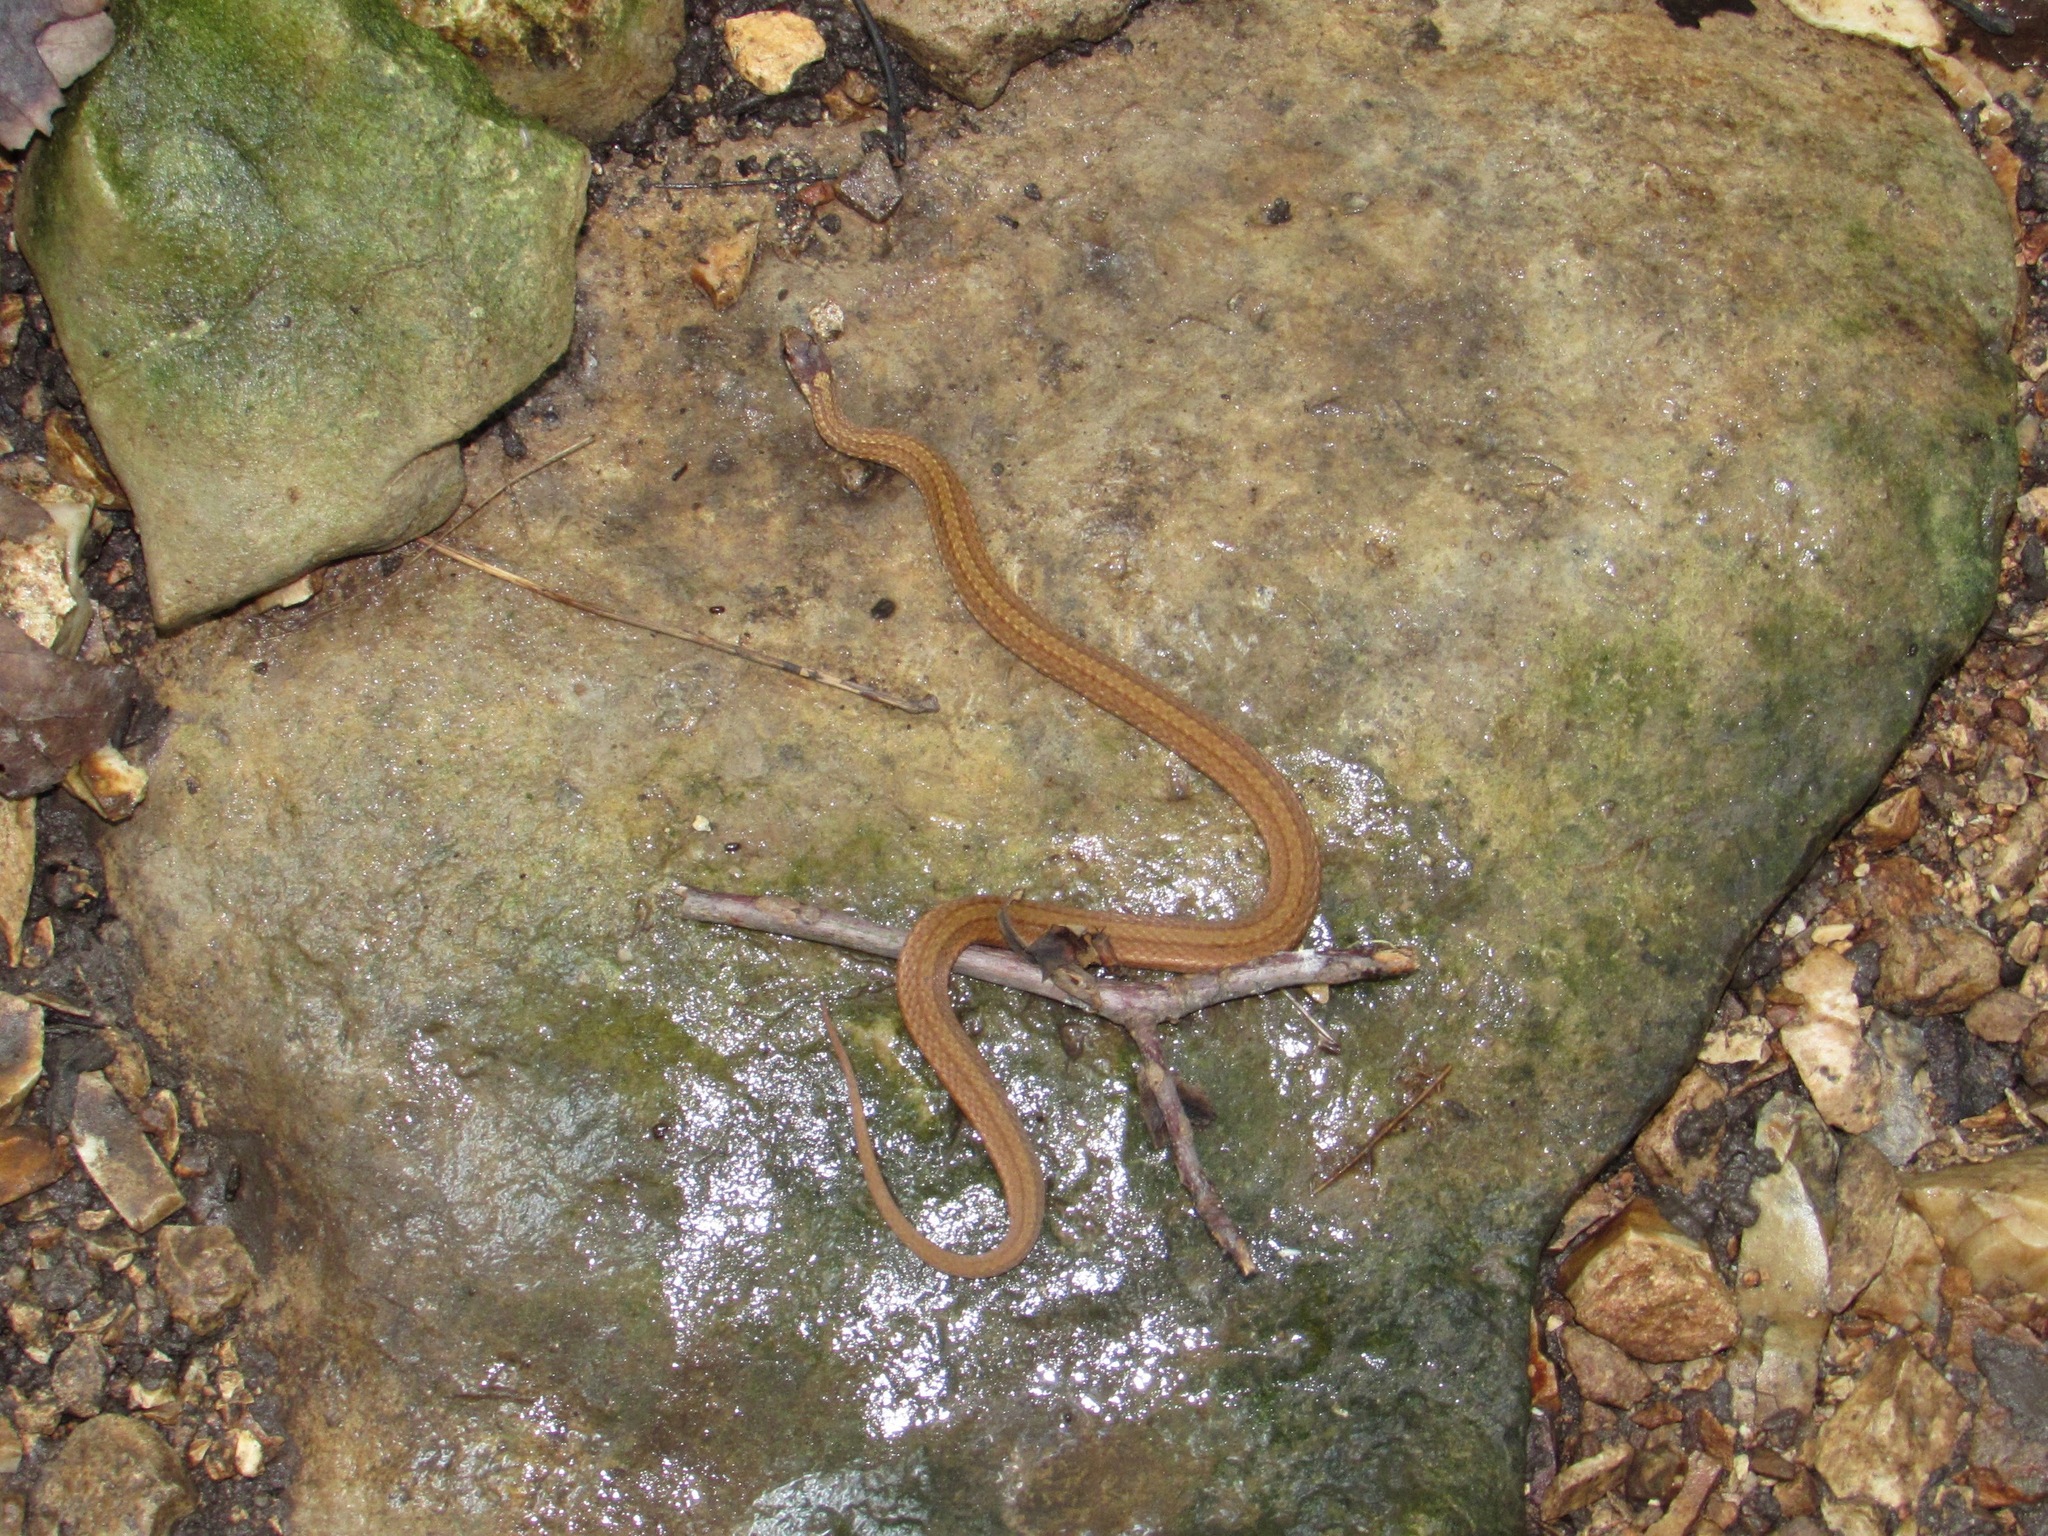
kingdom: Animalia
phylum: Chordata
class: Squamata
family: Colubridae
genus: Storeria
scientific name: Storeria occipitomaculata
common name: Redbelly snake
